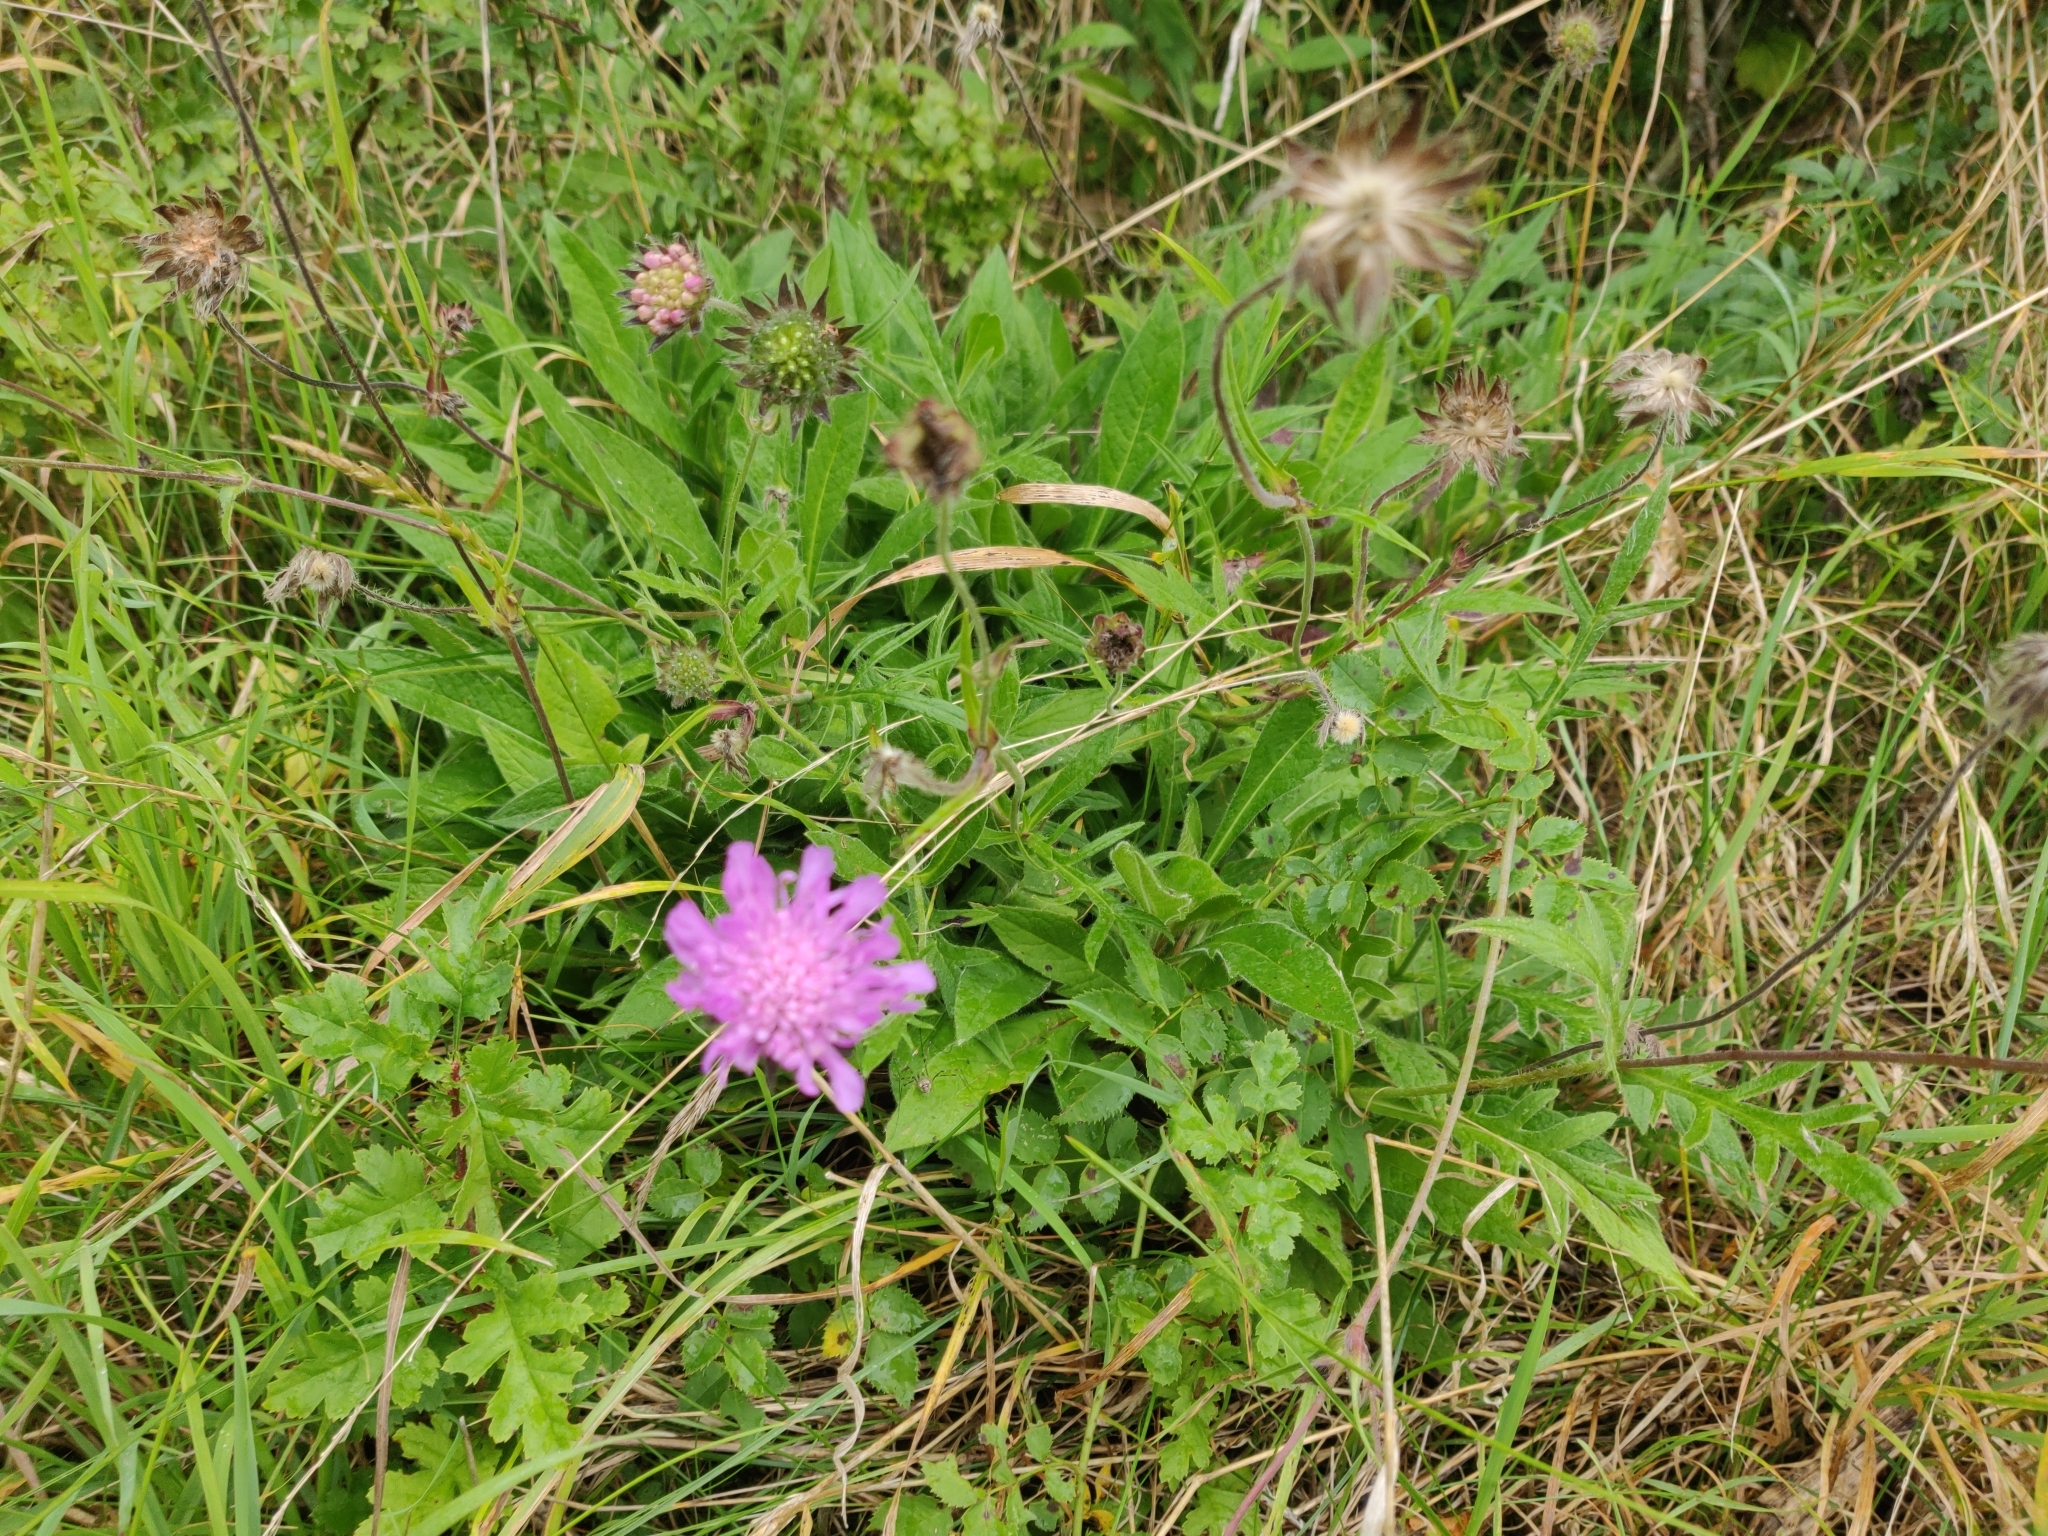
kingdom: Plantae
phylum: Tracheophyta
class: Magnoliopsida
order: Dipsacales
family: Caprifoliaceae
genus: Knautia
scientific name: Knautia arvensis
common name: Field scabiosa
